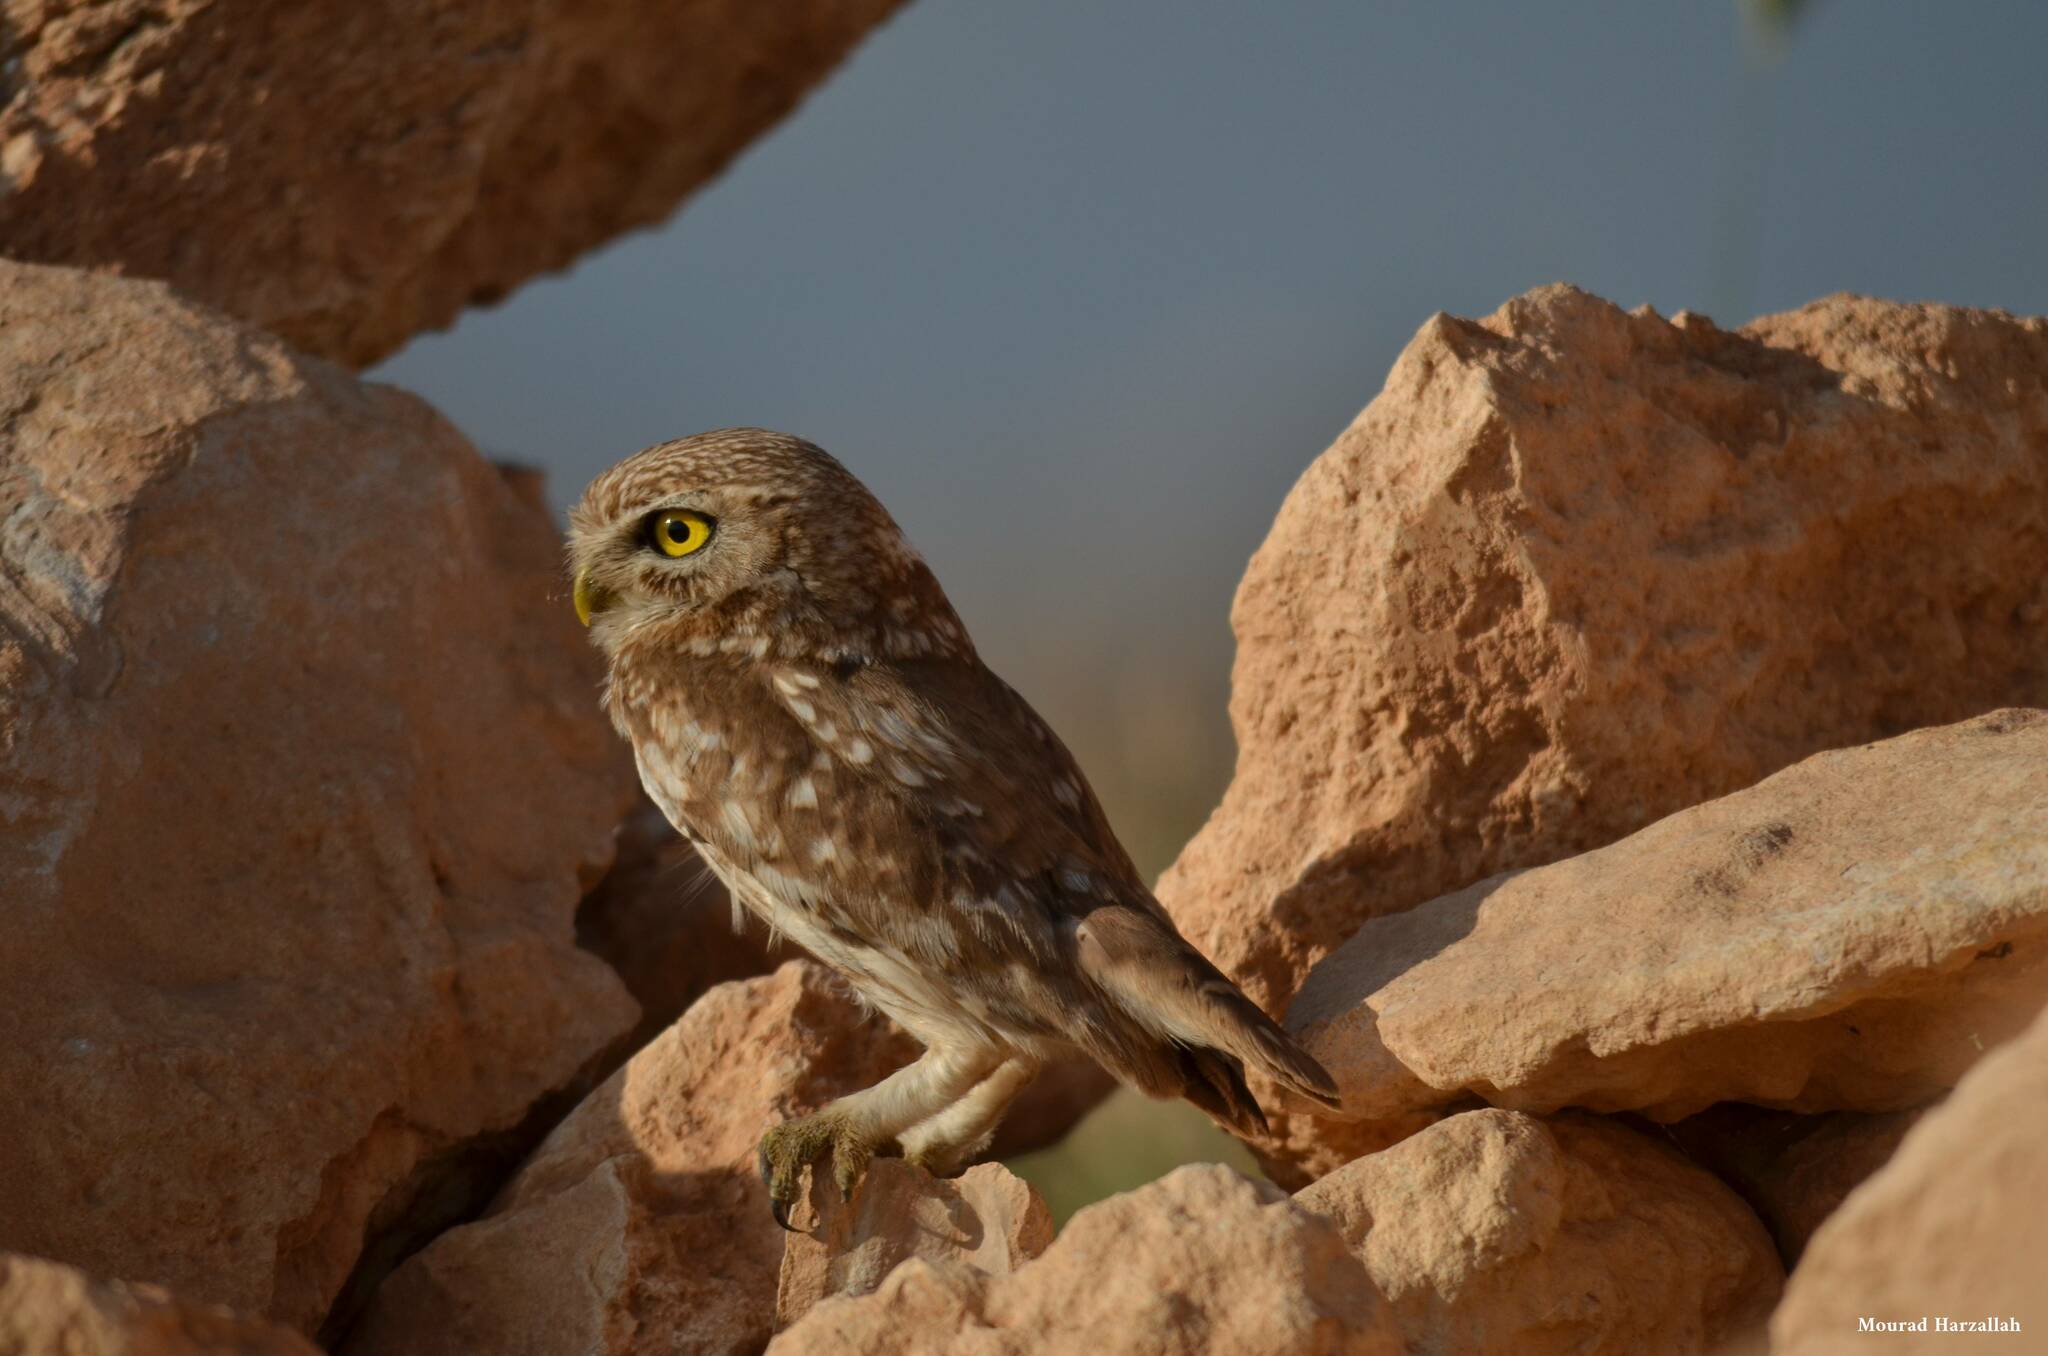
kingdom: Animalia
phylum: Chordata
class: Aves
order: Strigiformes
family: Strigidae
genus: Athene
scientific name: Athene noctua
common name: Little owl
